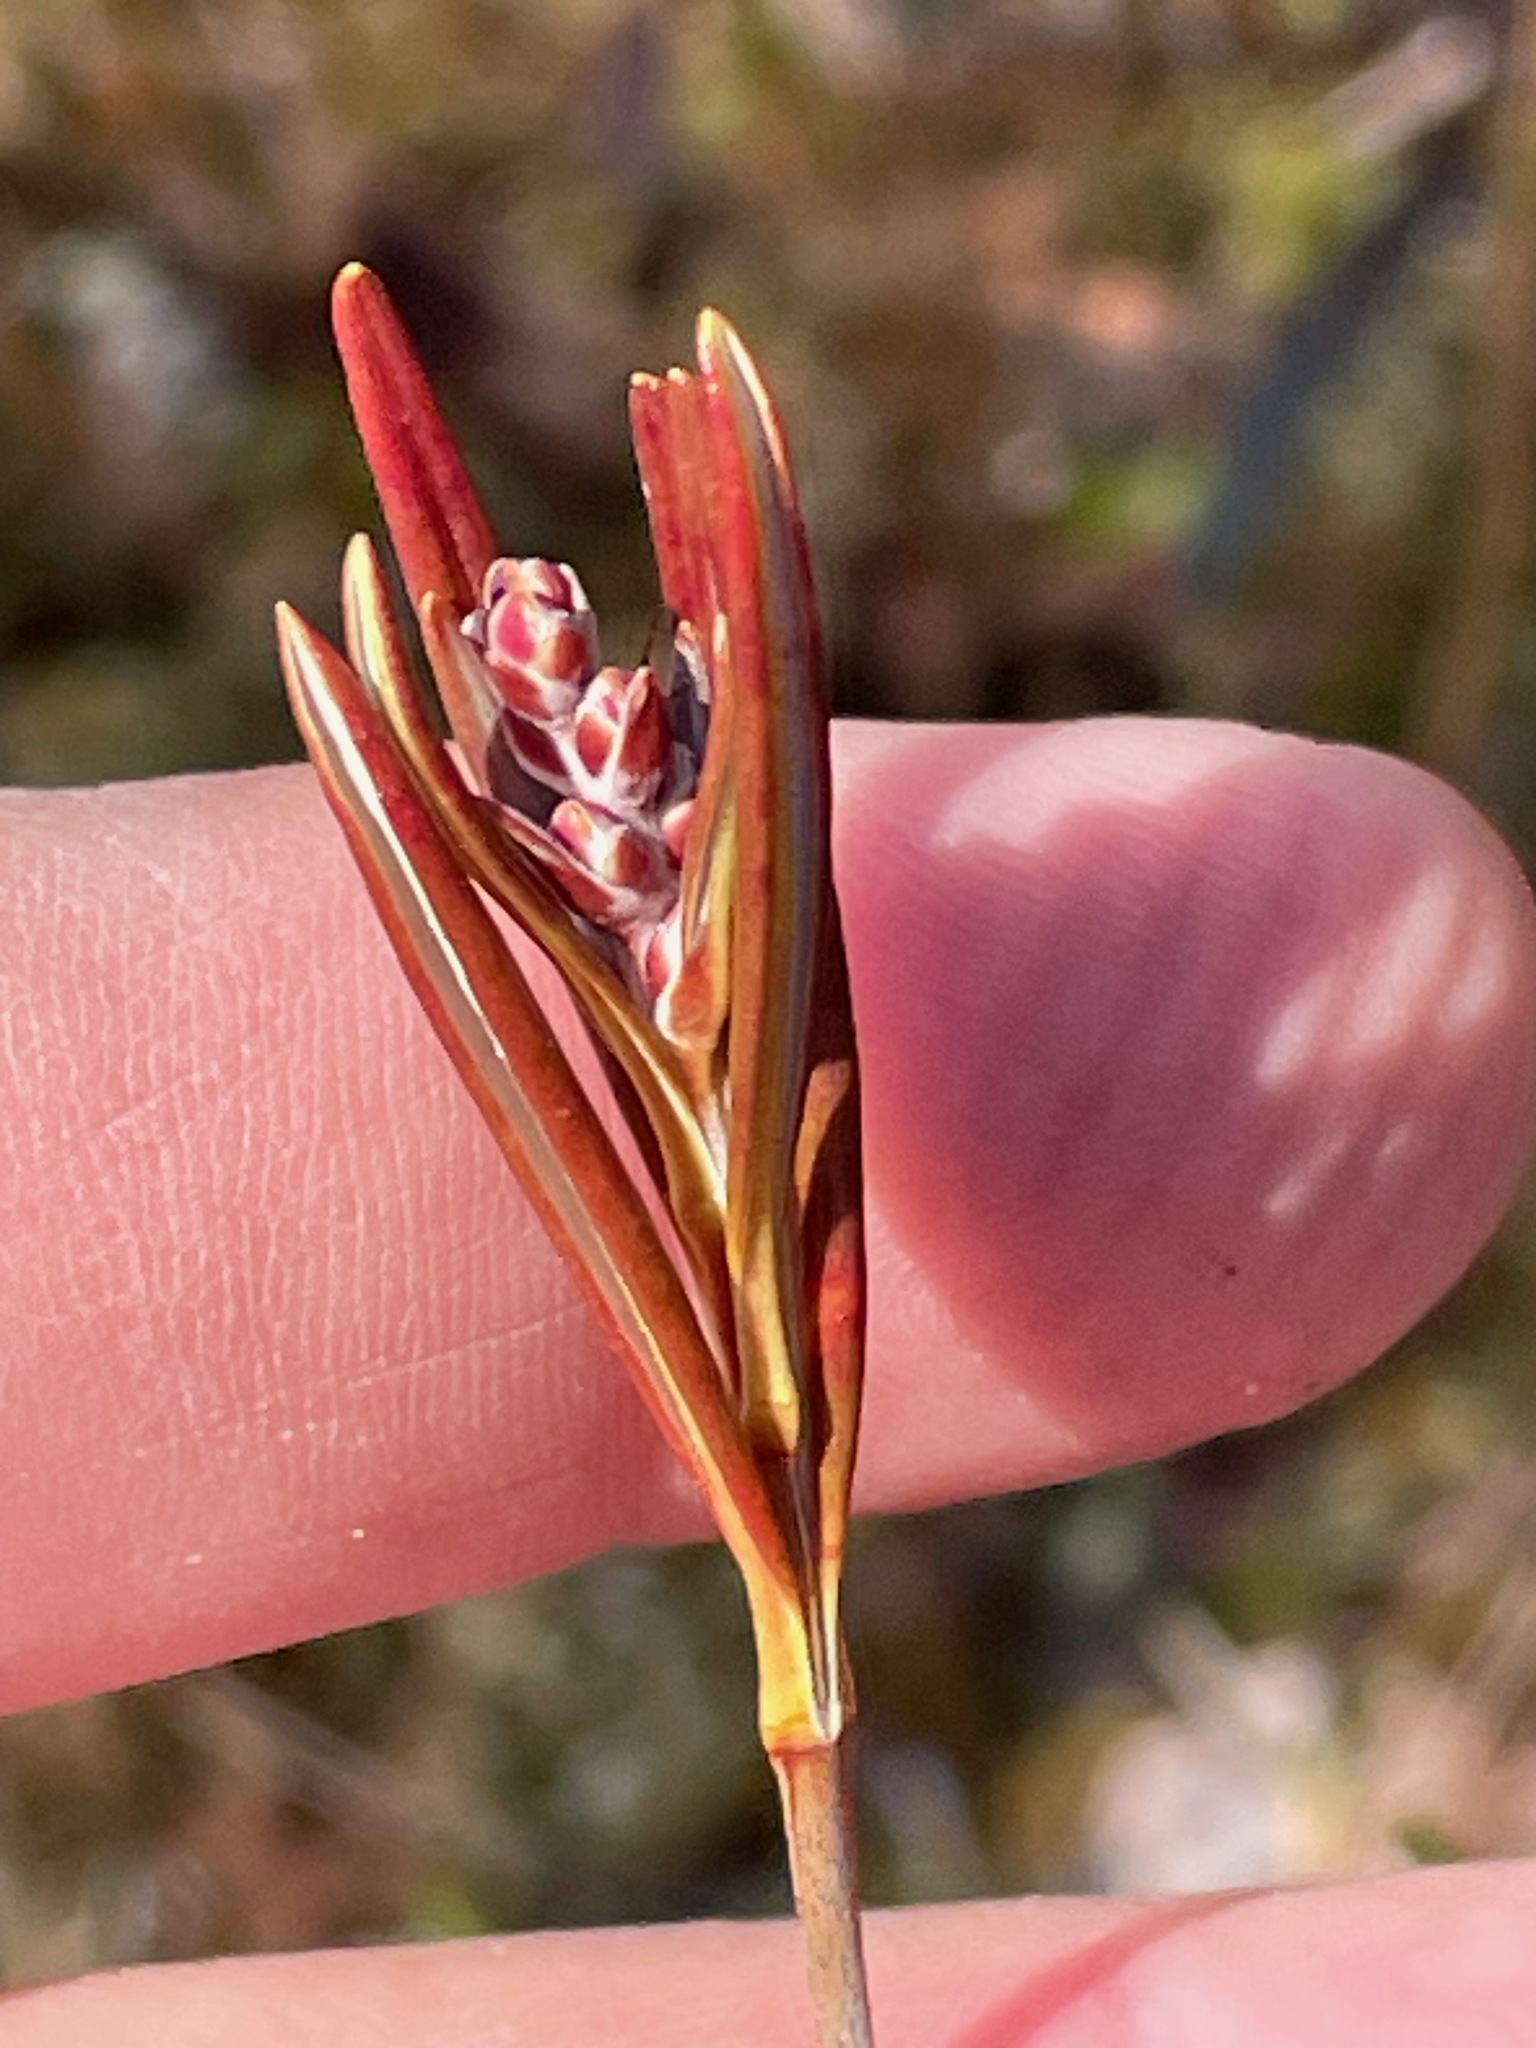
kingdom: Plantae
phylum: Tracheophyta
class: Magnoliopsida
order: Ericales
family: Ericaceae
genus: Andromeda
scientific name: Andromeda polifolia
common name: Bog-rosemary
